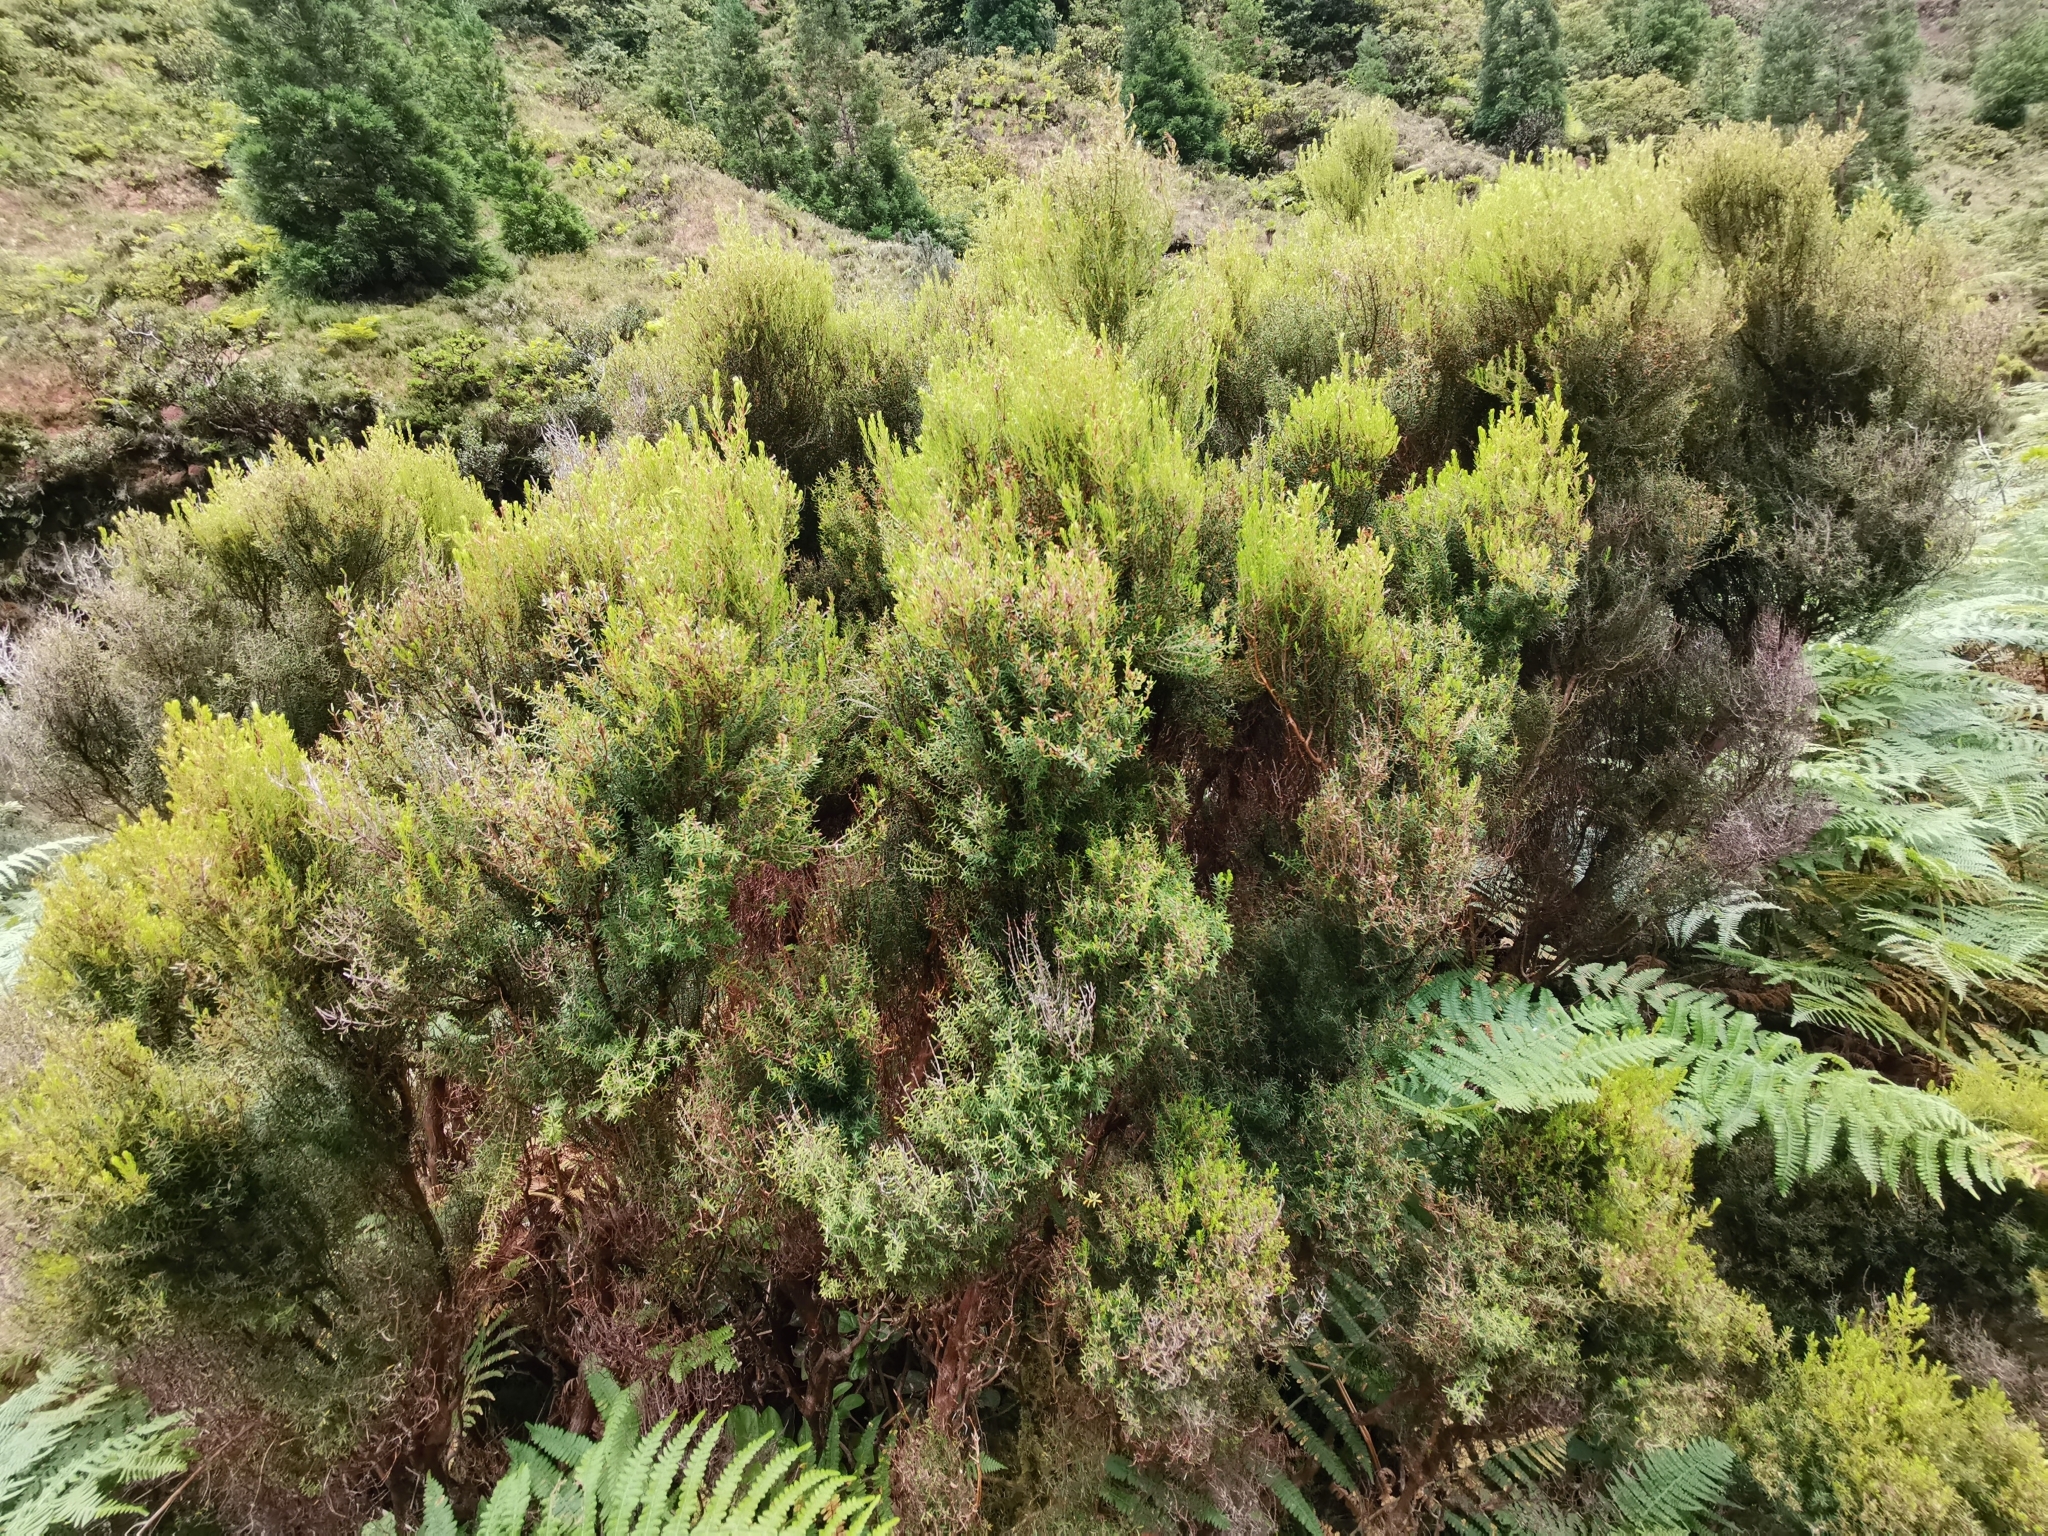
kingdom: Plantae
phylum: Tracheophyta
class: Magnoliopsida
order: Ericales
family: Ericaceae
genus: Erica
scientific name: Erica azorica
